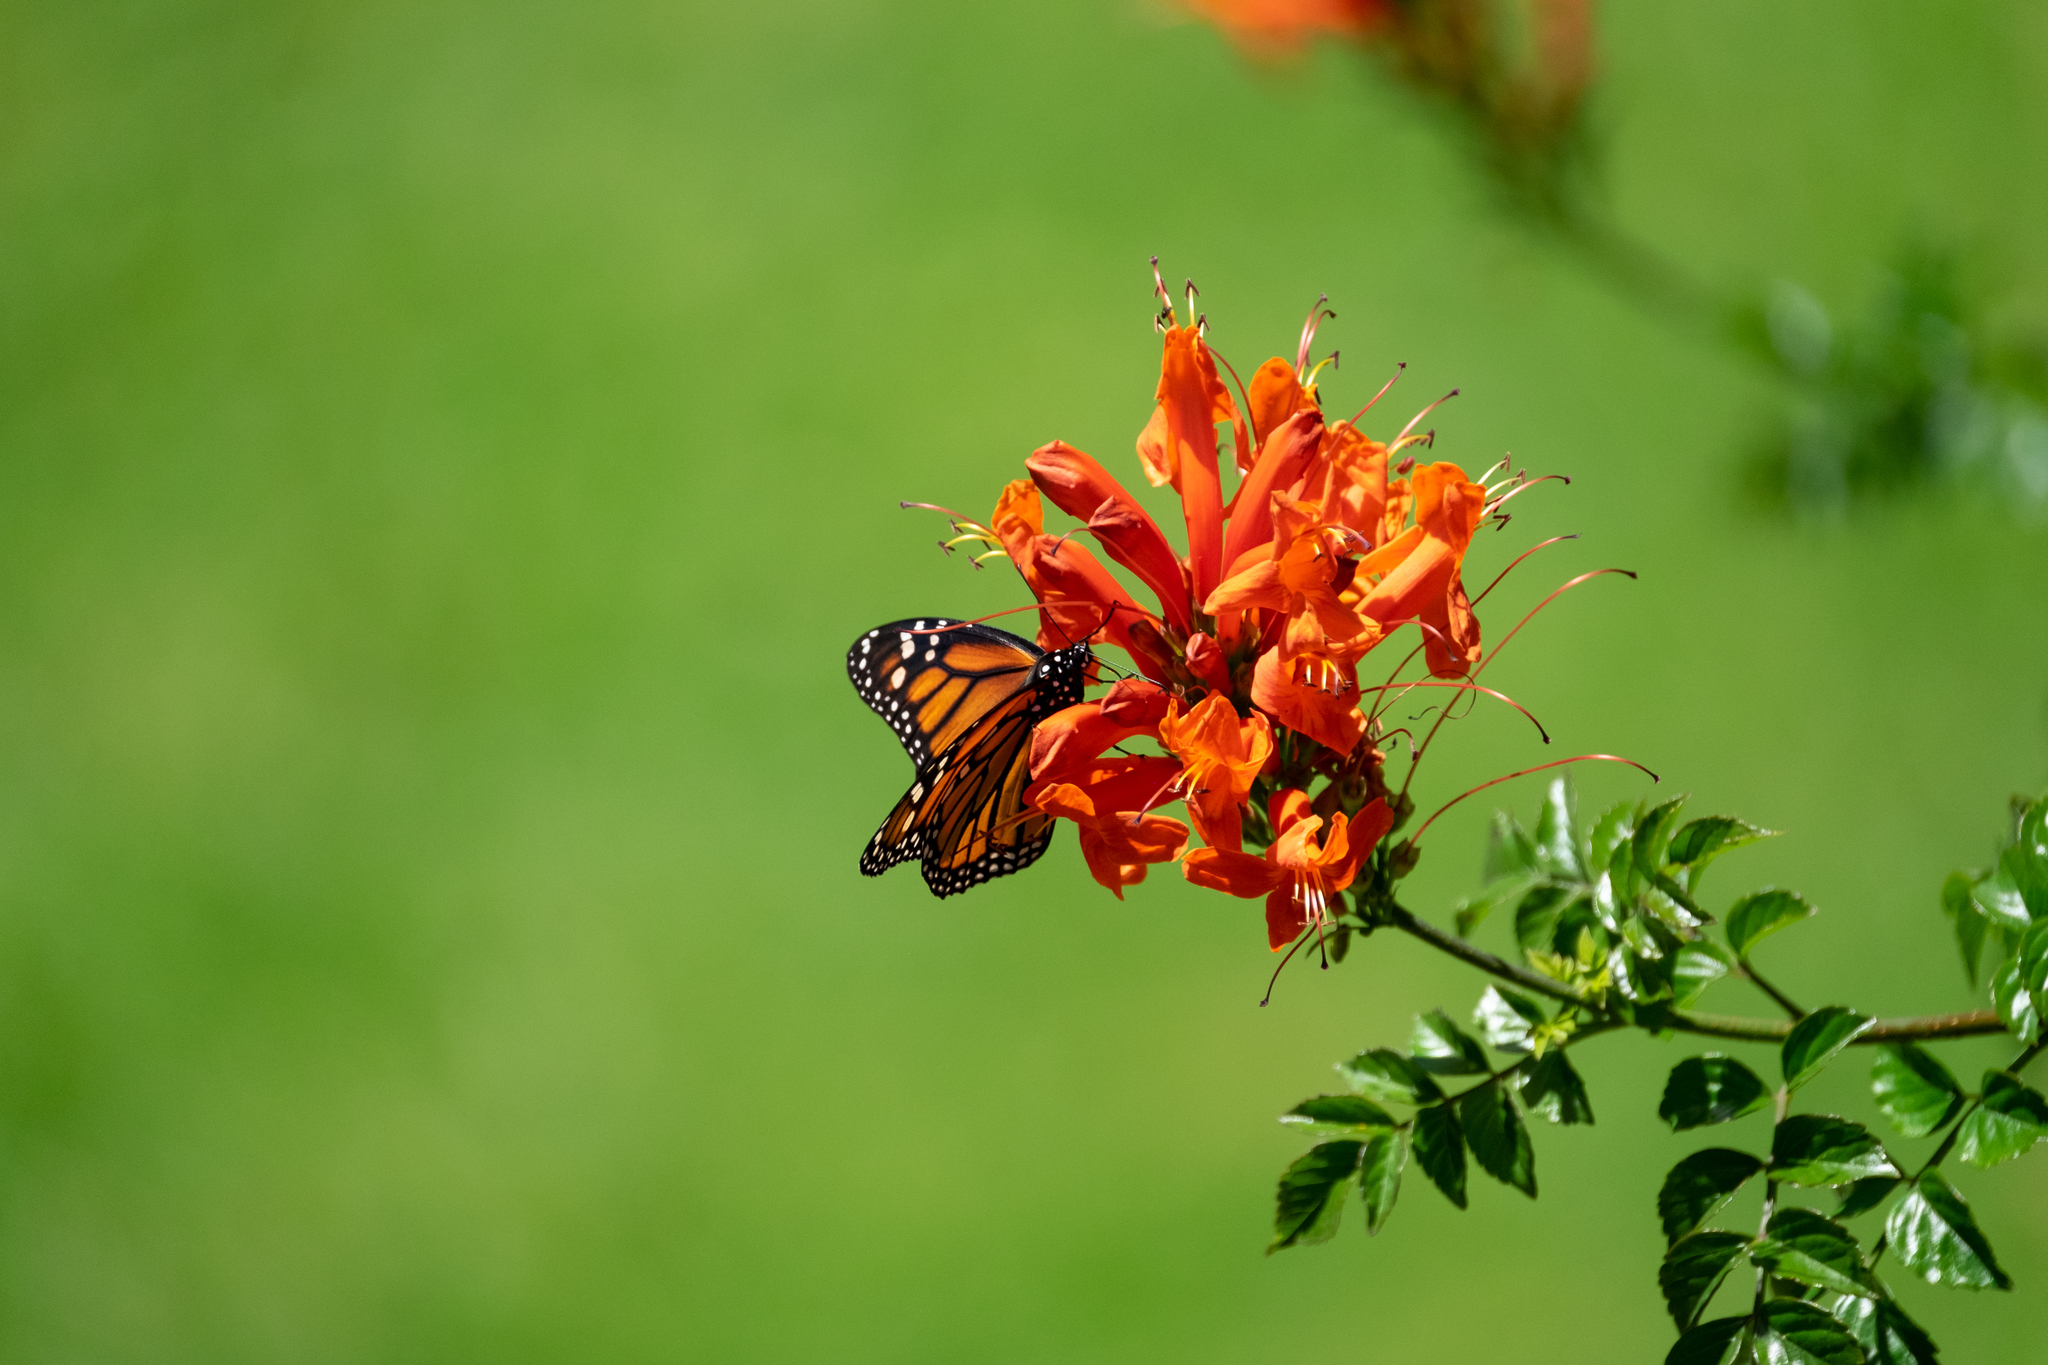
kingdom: Animalia
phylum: Arthropoda
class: Insecta
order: Lepidoptera
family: Nymphalidae
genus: Danaus
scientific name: Danaus plexippus
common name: Monarch
